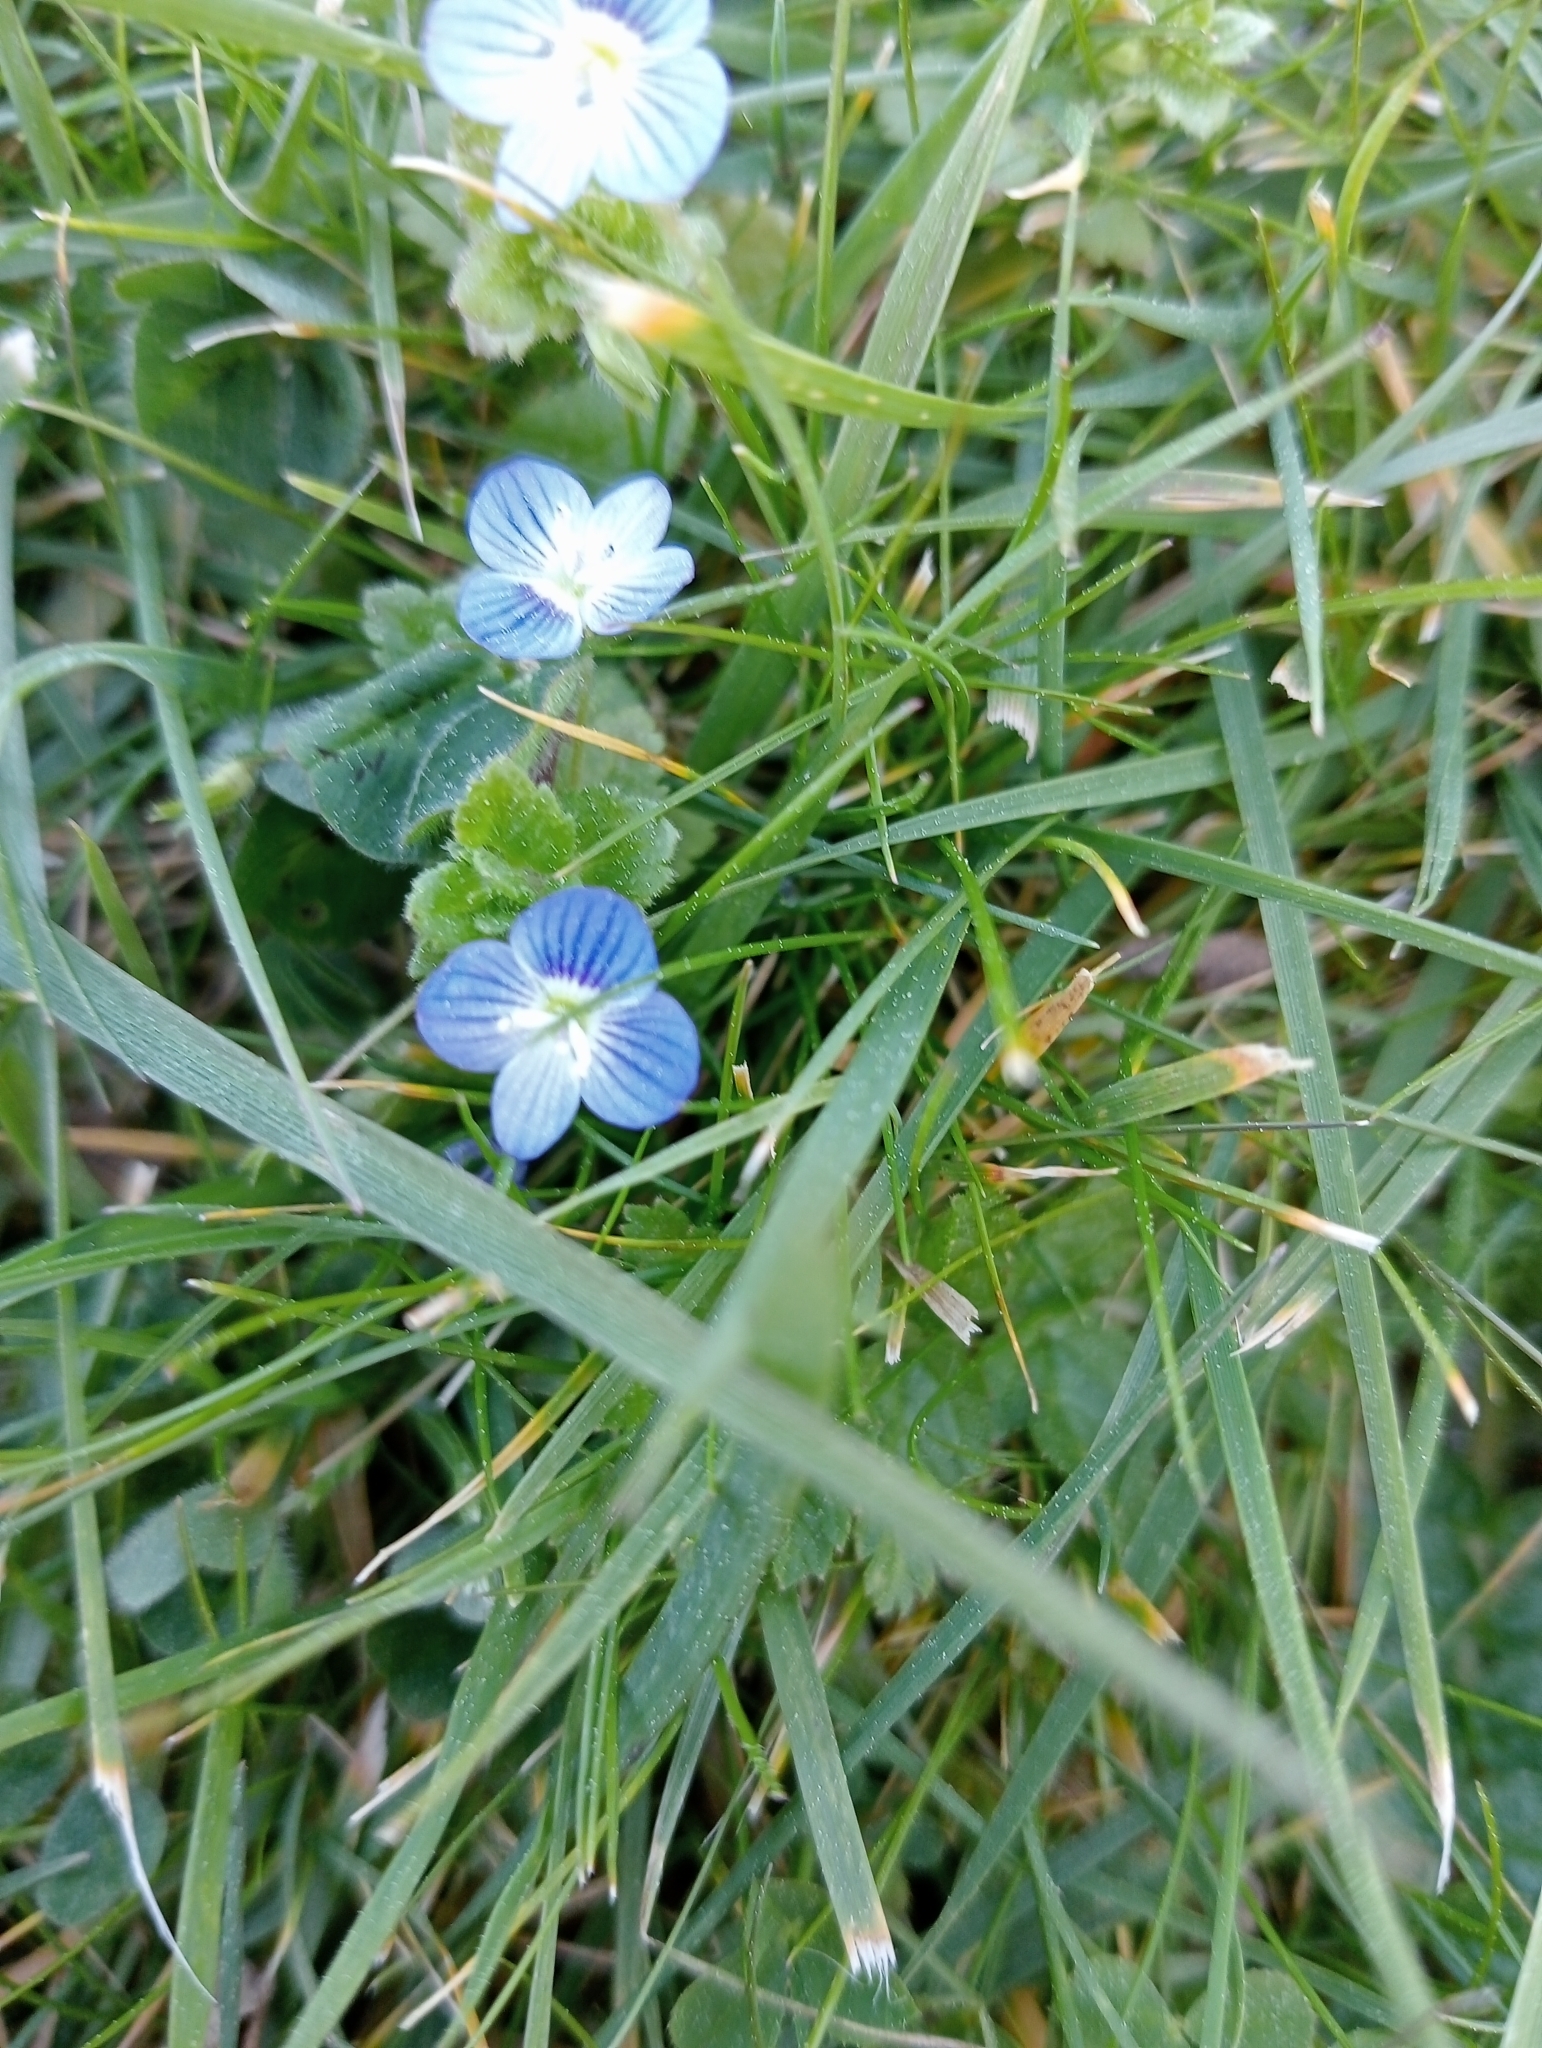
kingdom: Plantae
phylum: Tracheophyta
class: Magnoliopsida
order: Lamiales
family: Plantaginaceae
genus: Veronica
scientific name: Veronica persica
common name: Common field-speedwell
